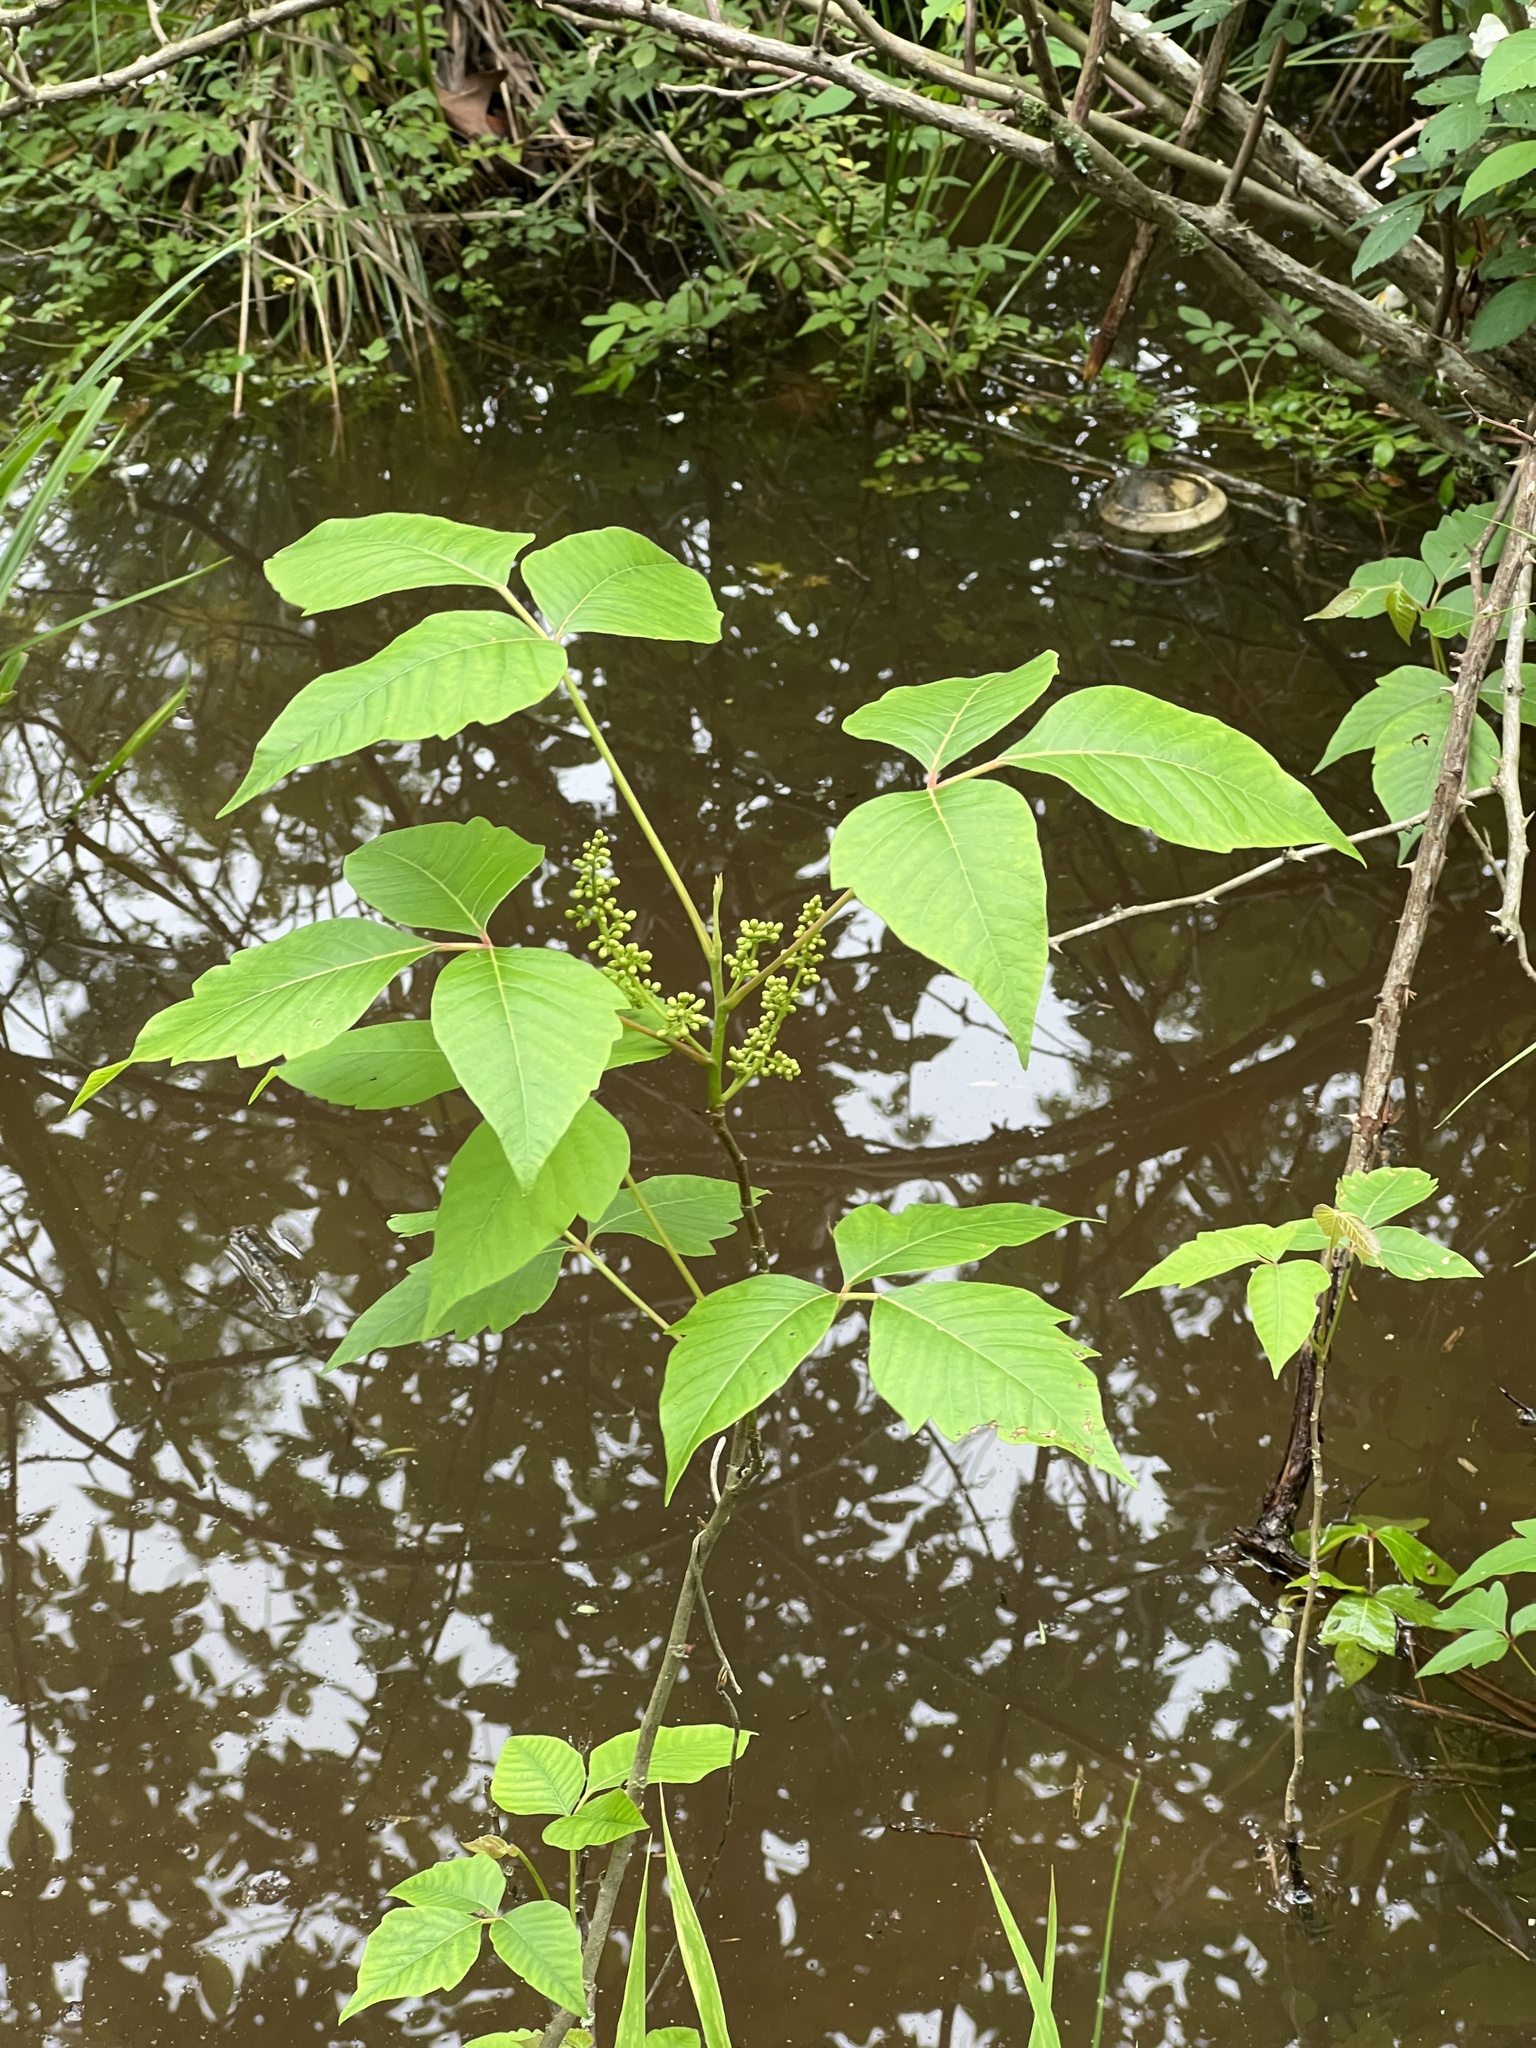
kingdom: Plantae
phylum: Tracheophyta
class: Magnoliopsida
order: Sapindales
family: Anacardiaceae
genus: Toxicodendron
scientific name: Toxicodendron radicans
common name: Poison ivy
